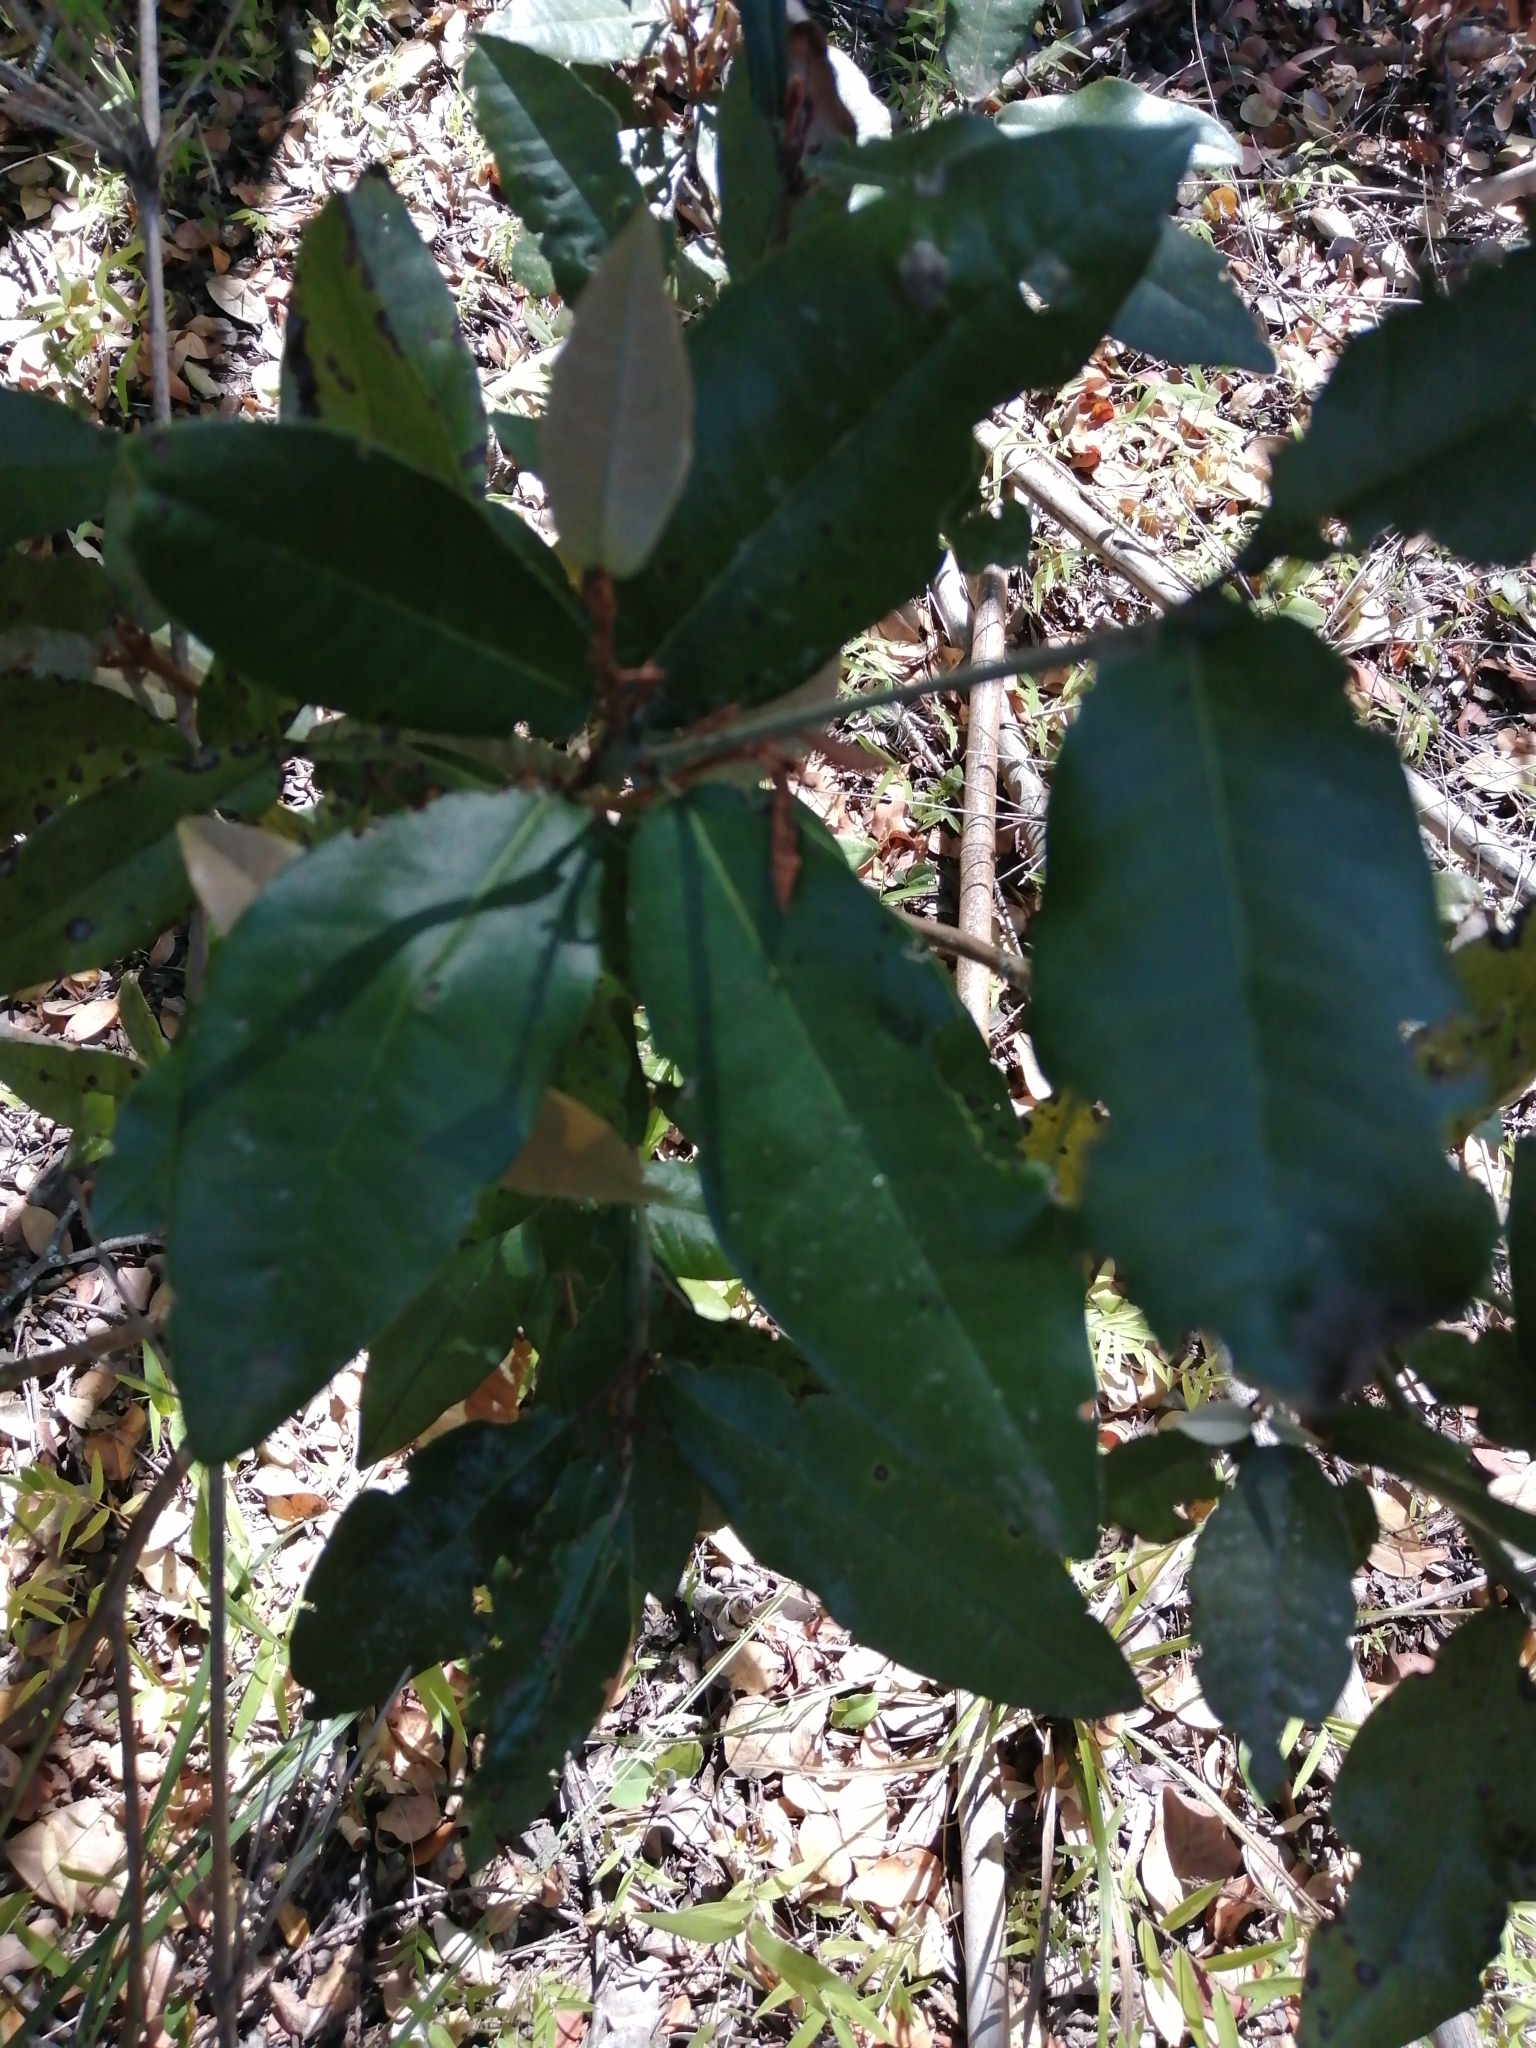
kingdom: Plantae
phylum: Tracheophyta
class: Magnoliopsida
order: Berberidopsidales
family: Aextoxicaceae
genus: Aextoxicon
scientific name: Aextoxicon punctatum
